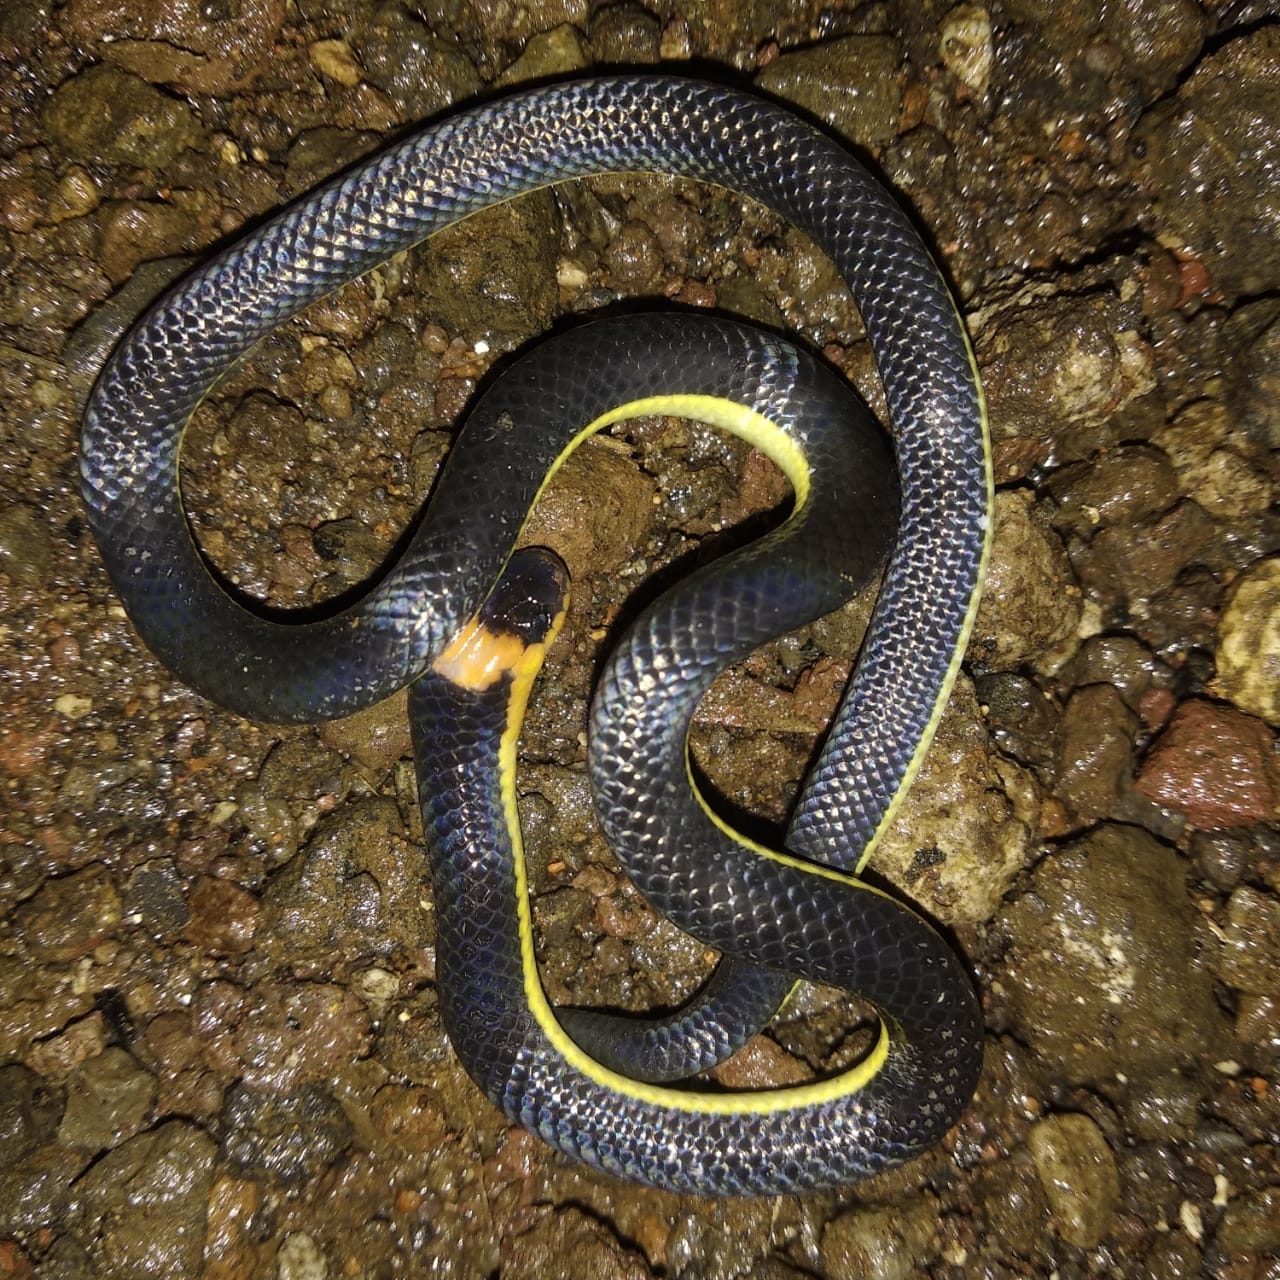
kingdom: Animalia
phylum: Chordata
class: Squamata
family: Colubridae
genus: Calamaria
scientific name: Calamaria lumbricoidea
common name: Variable reed snake
